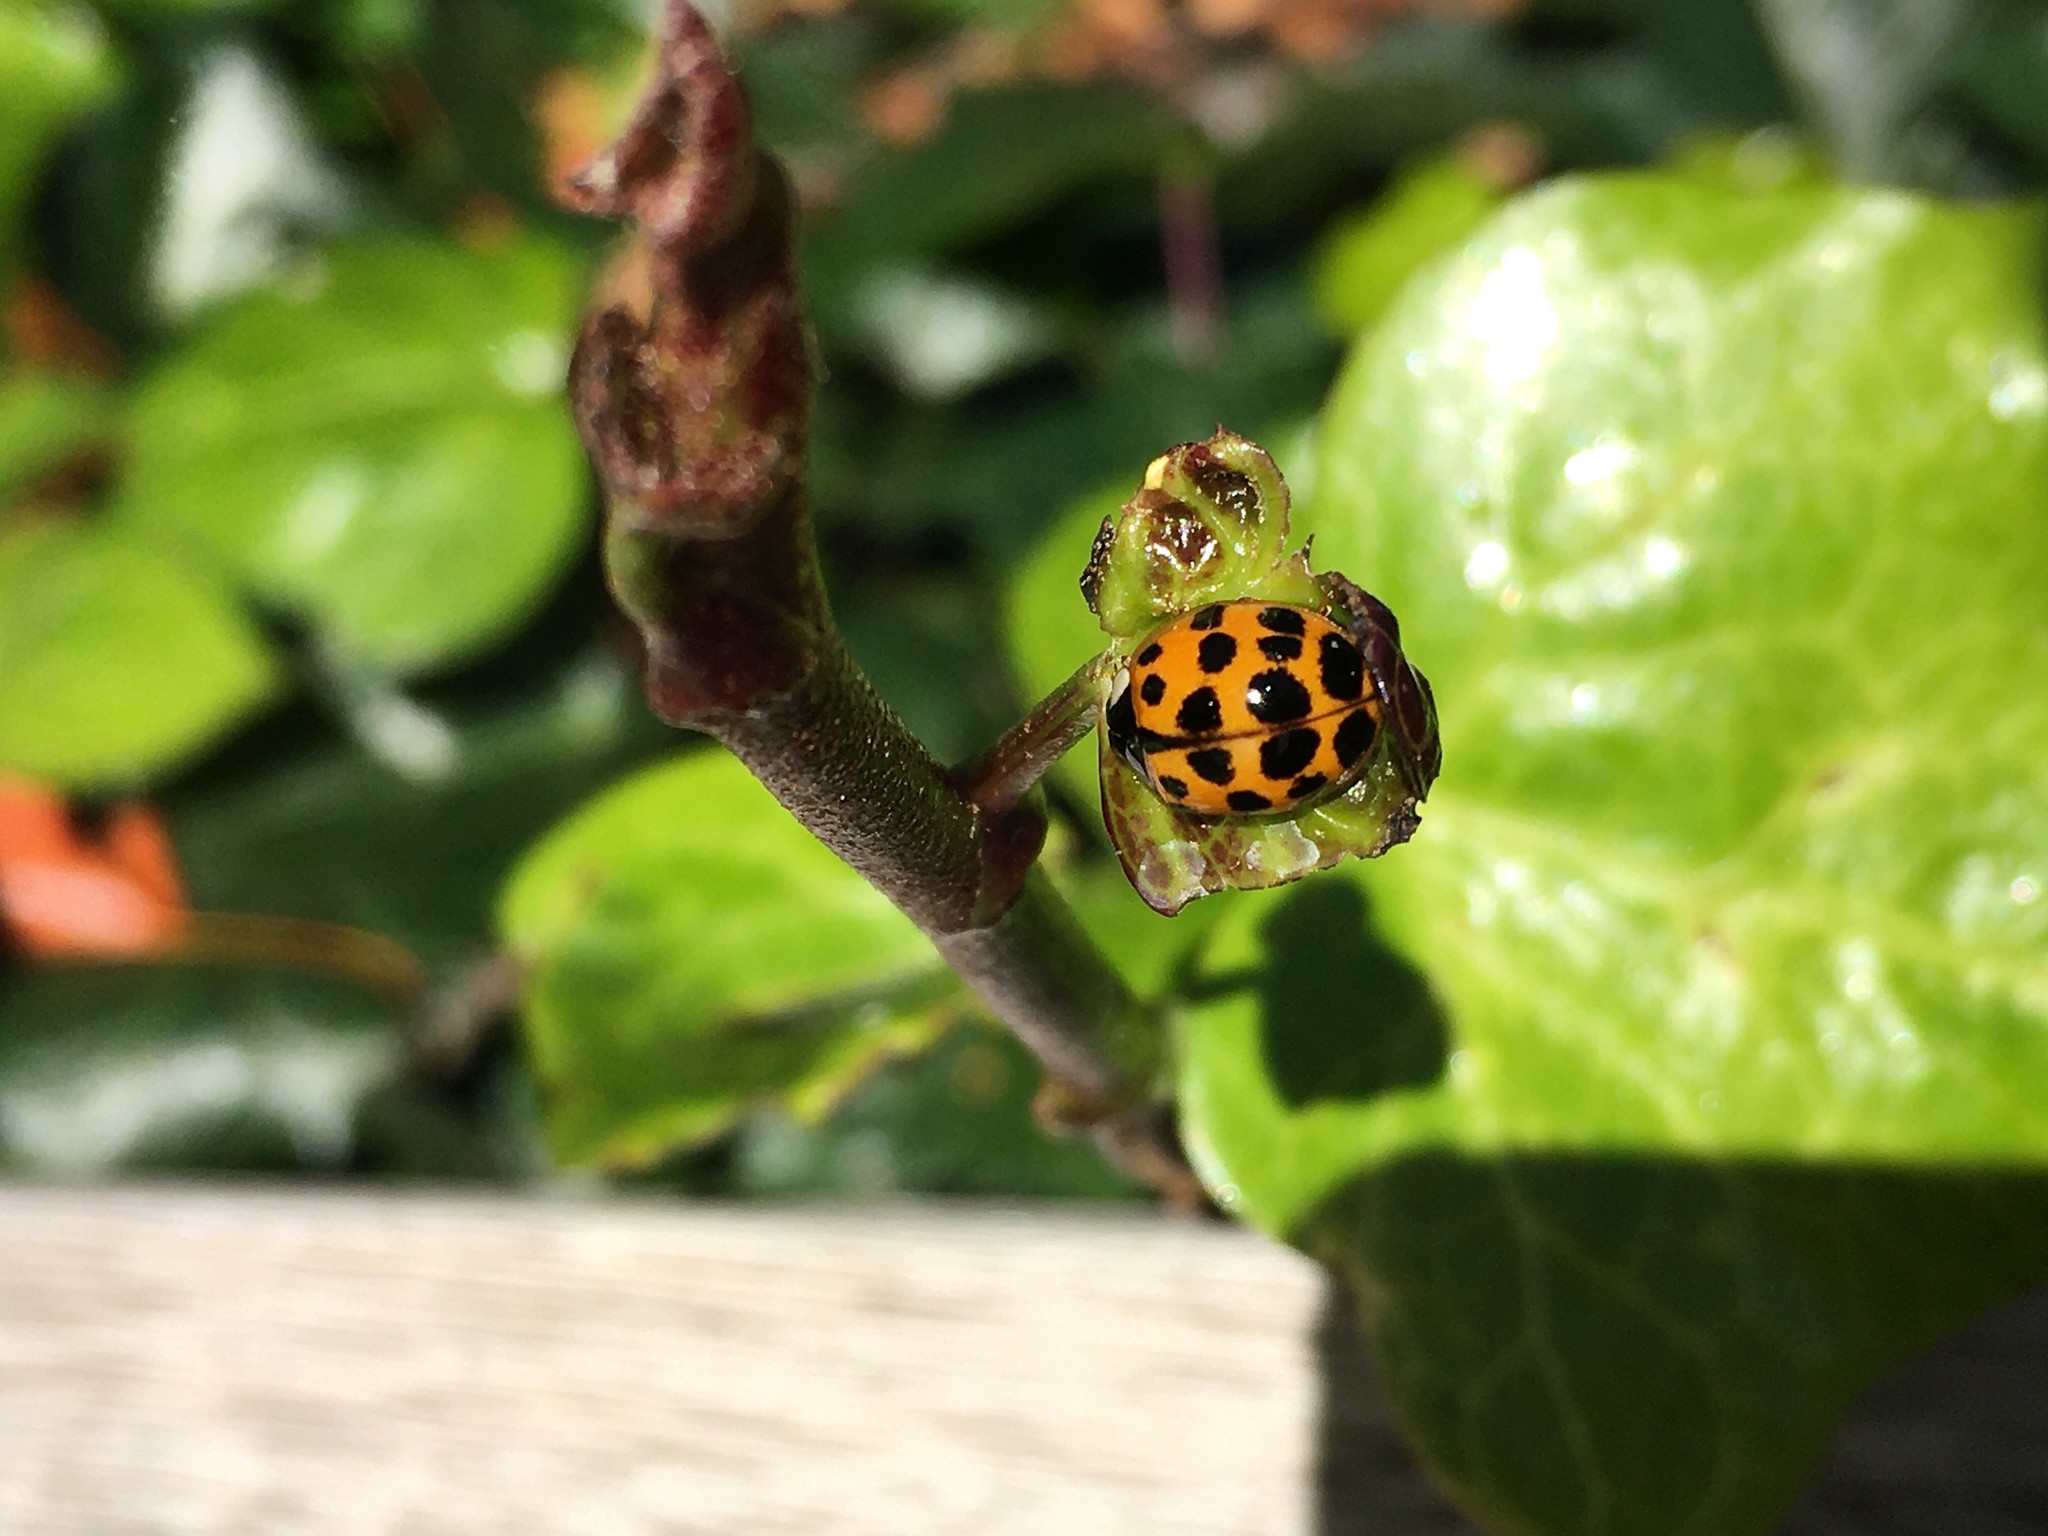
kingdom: Animalia
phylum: Arthropoda
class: Insecta
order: Coleoptera
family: Coccinellidae
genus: Harmonia
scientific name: Harmonia axyridis
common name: Harlequin ladybird
